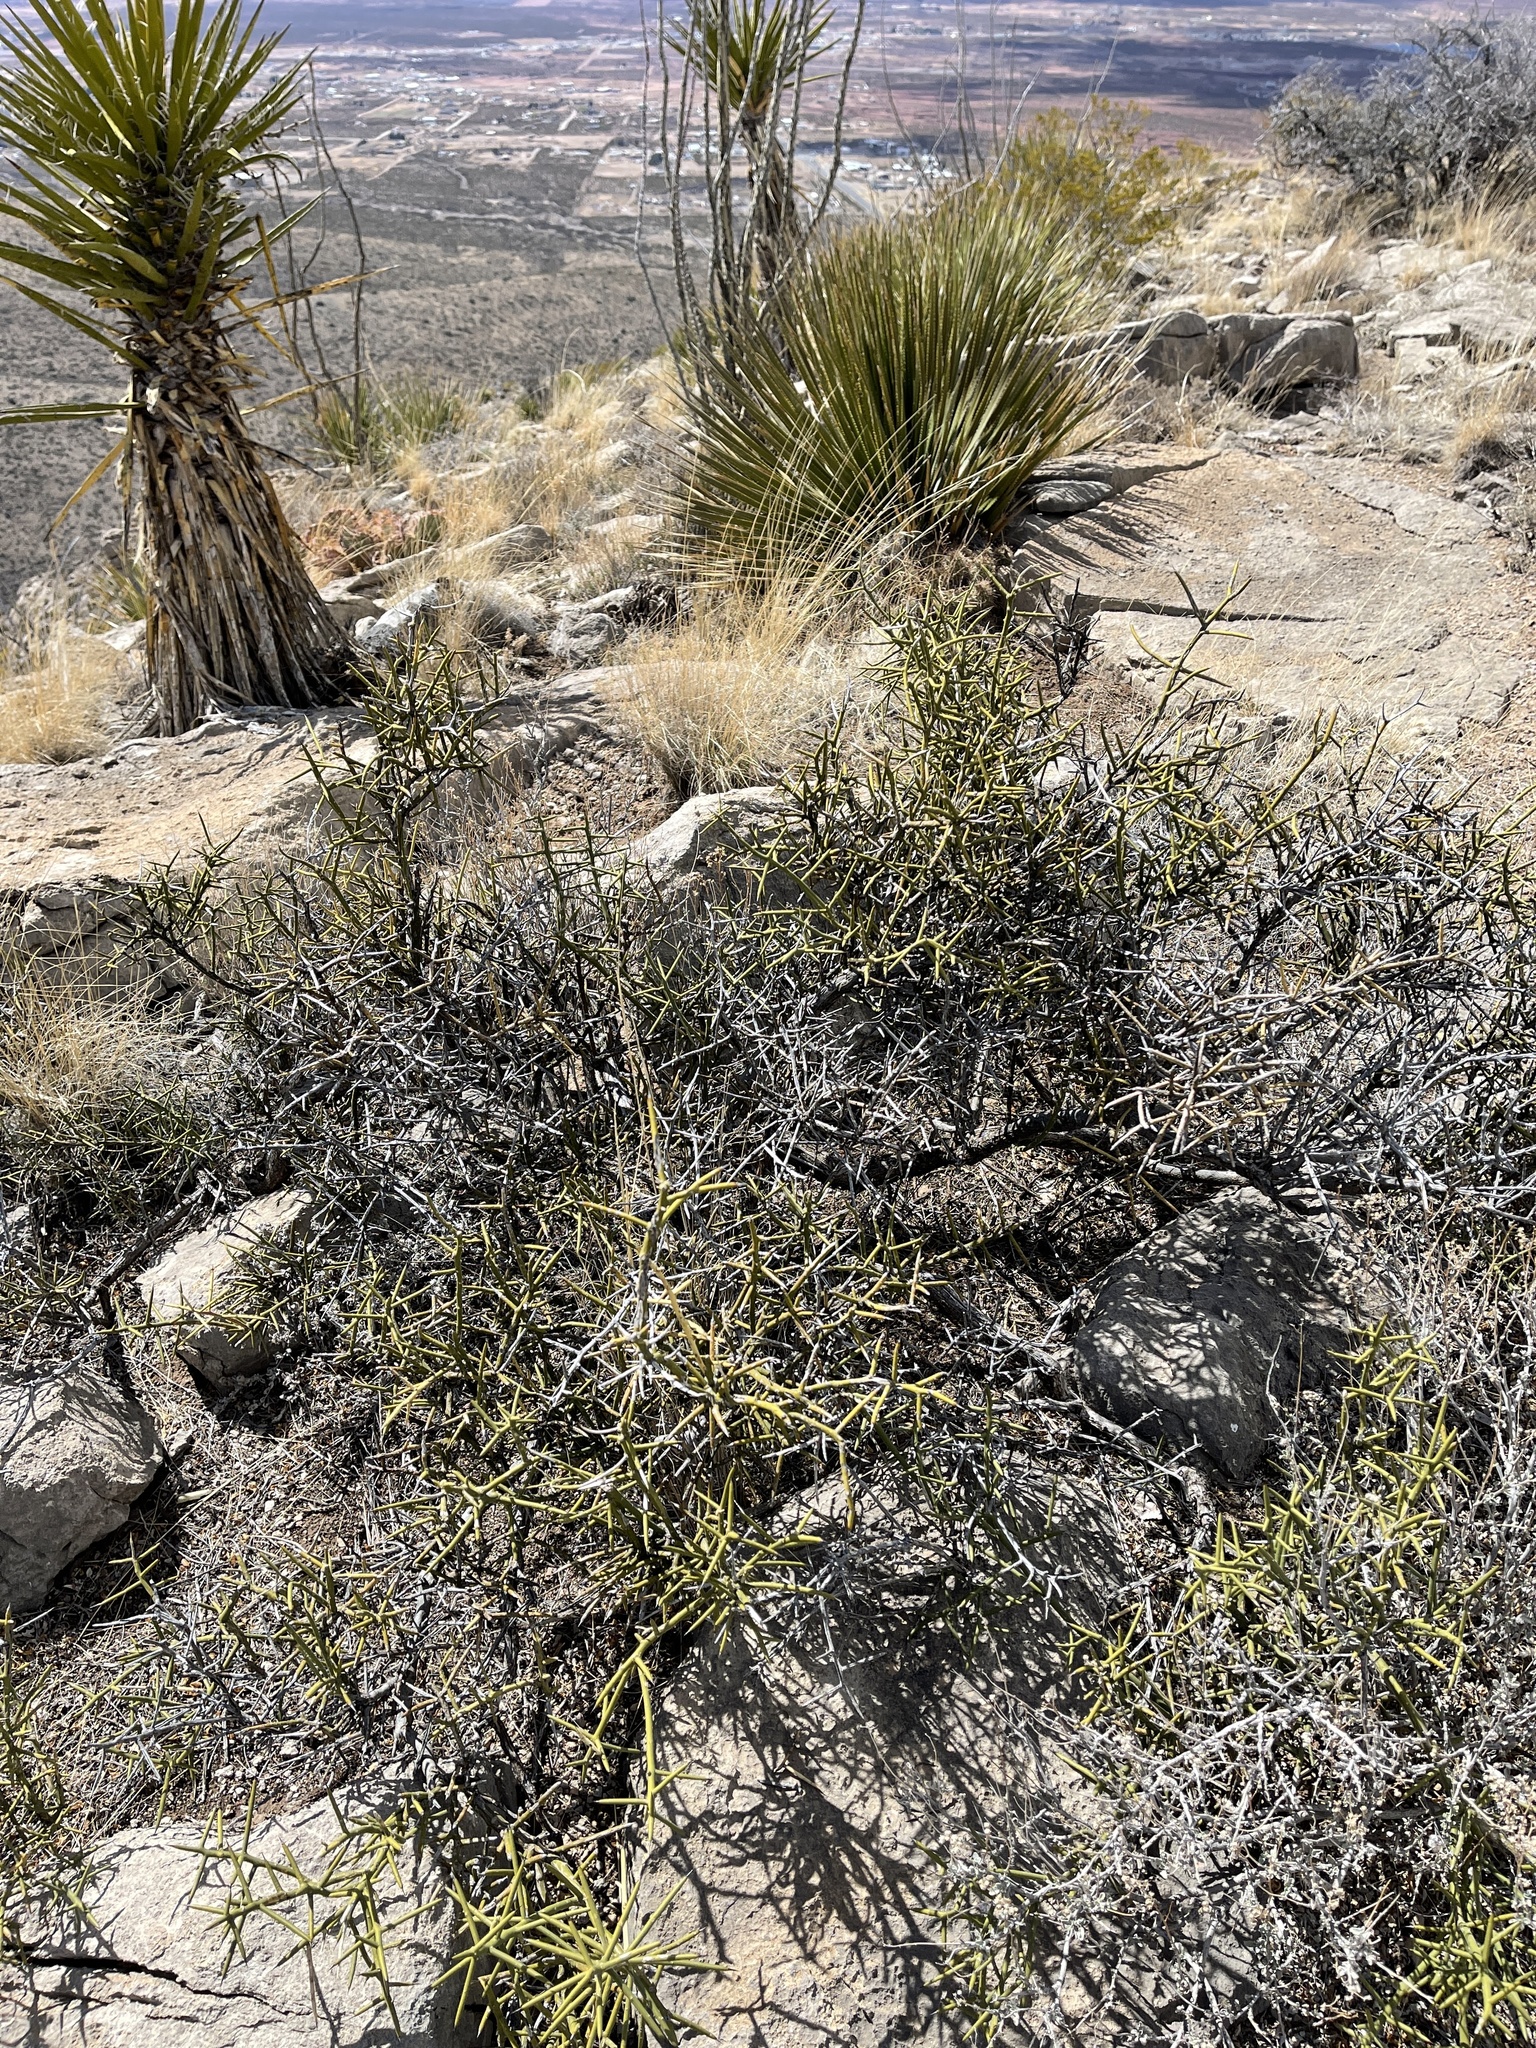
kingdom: Plantae
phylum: Tracheophyta
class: Magnoliopsida
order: Brassicales
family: Koeberliniaceae
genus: Koeberlinia
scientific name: Koeberlinia spinosa
